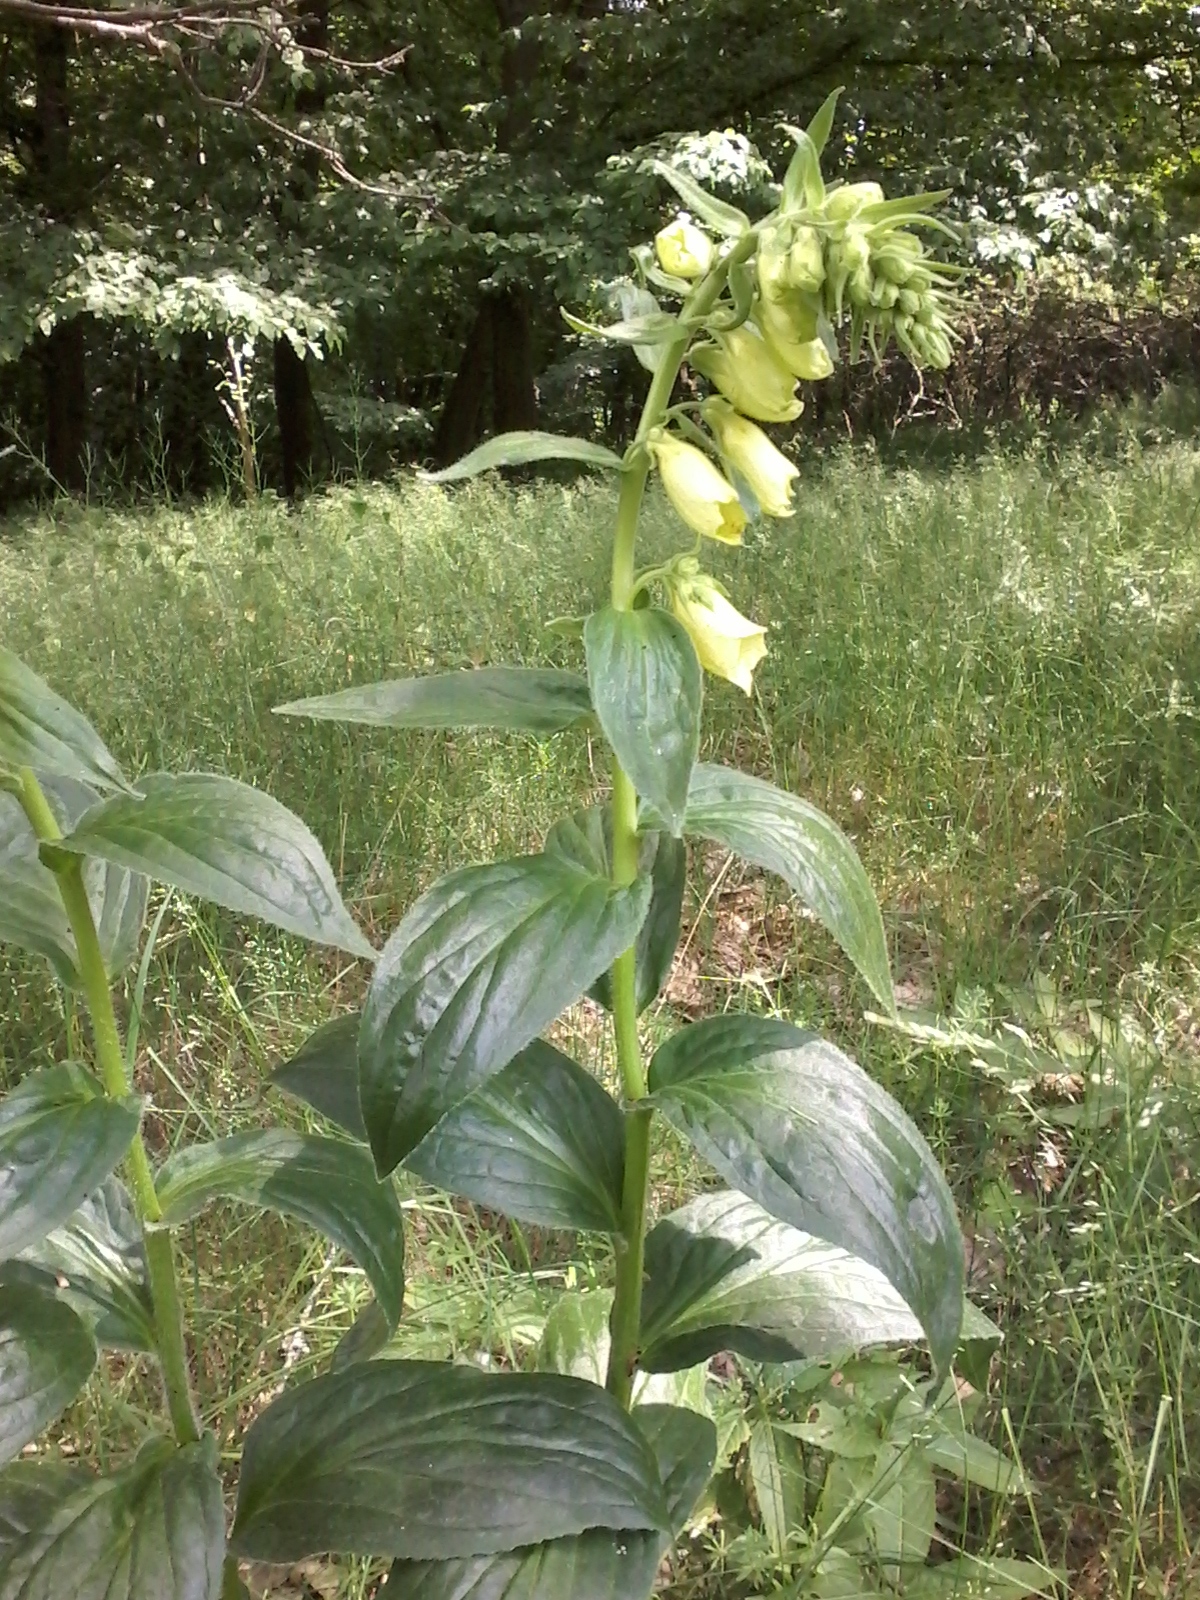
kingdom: Plantae
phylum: Tracheophyta
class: Magnoliopsida
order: Lamiales
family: Plantaginaceae
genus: Digitalis
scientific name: Digitalis grandiflora
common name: Yellow foxglove
